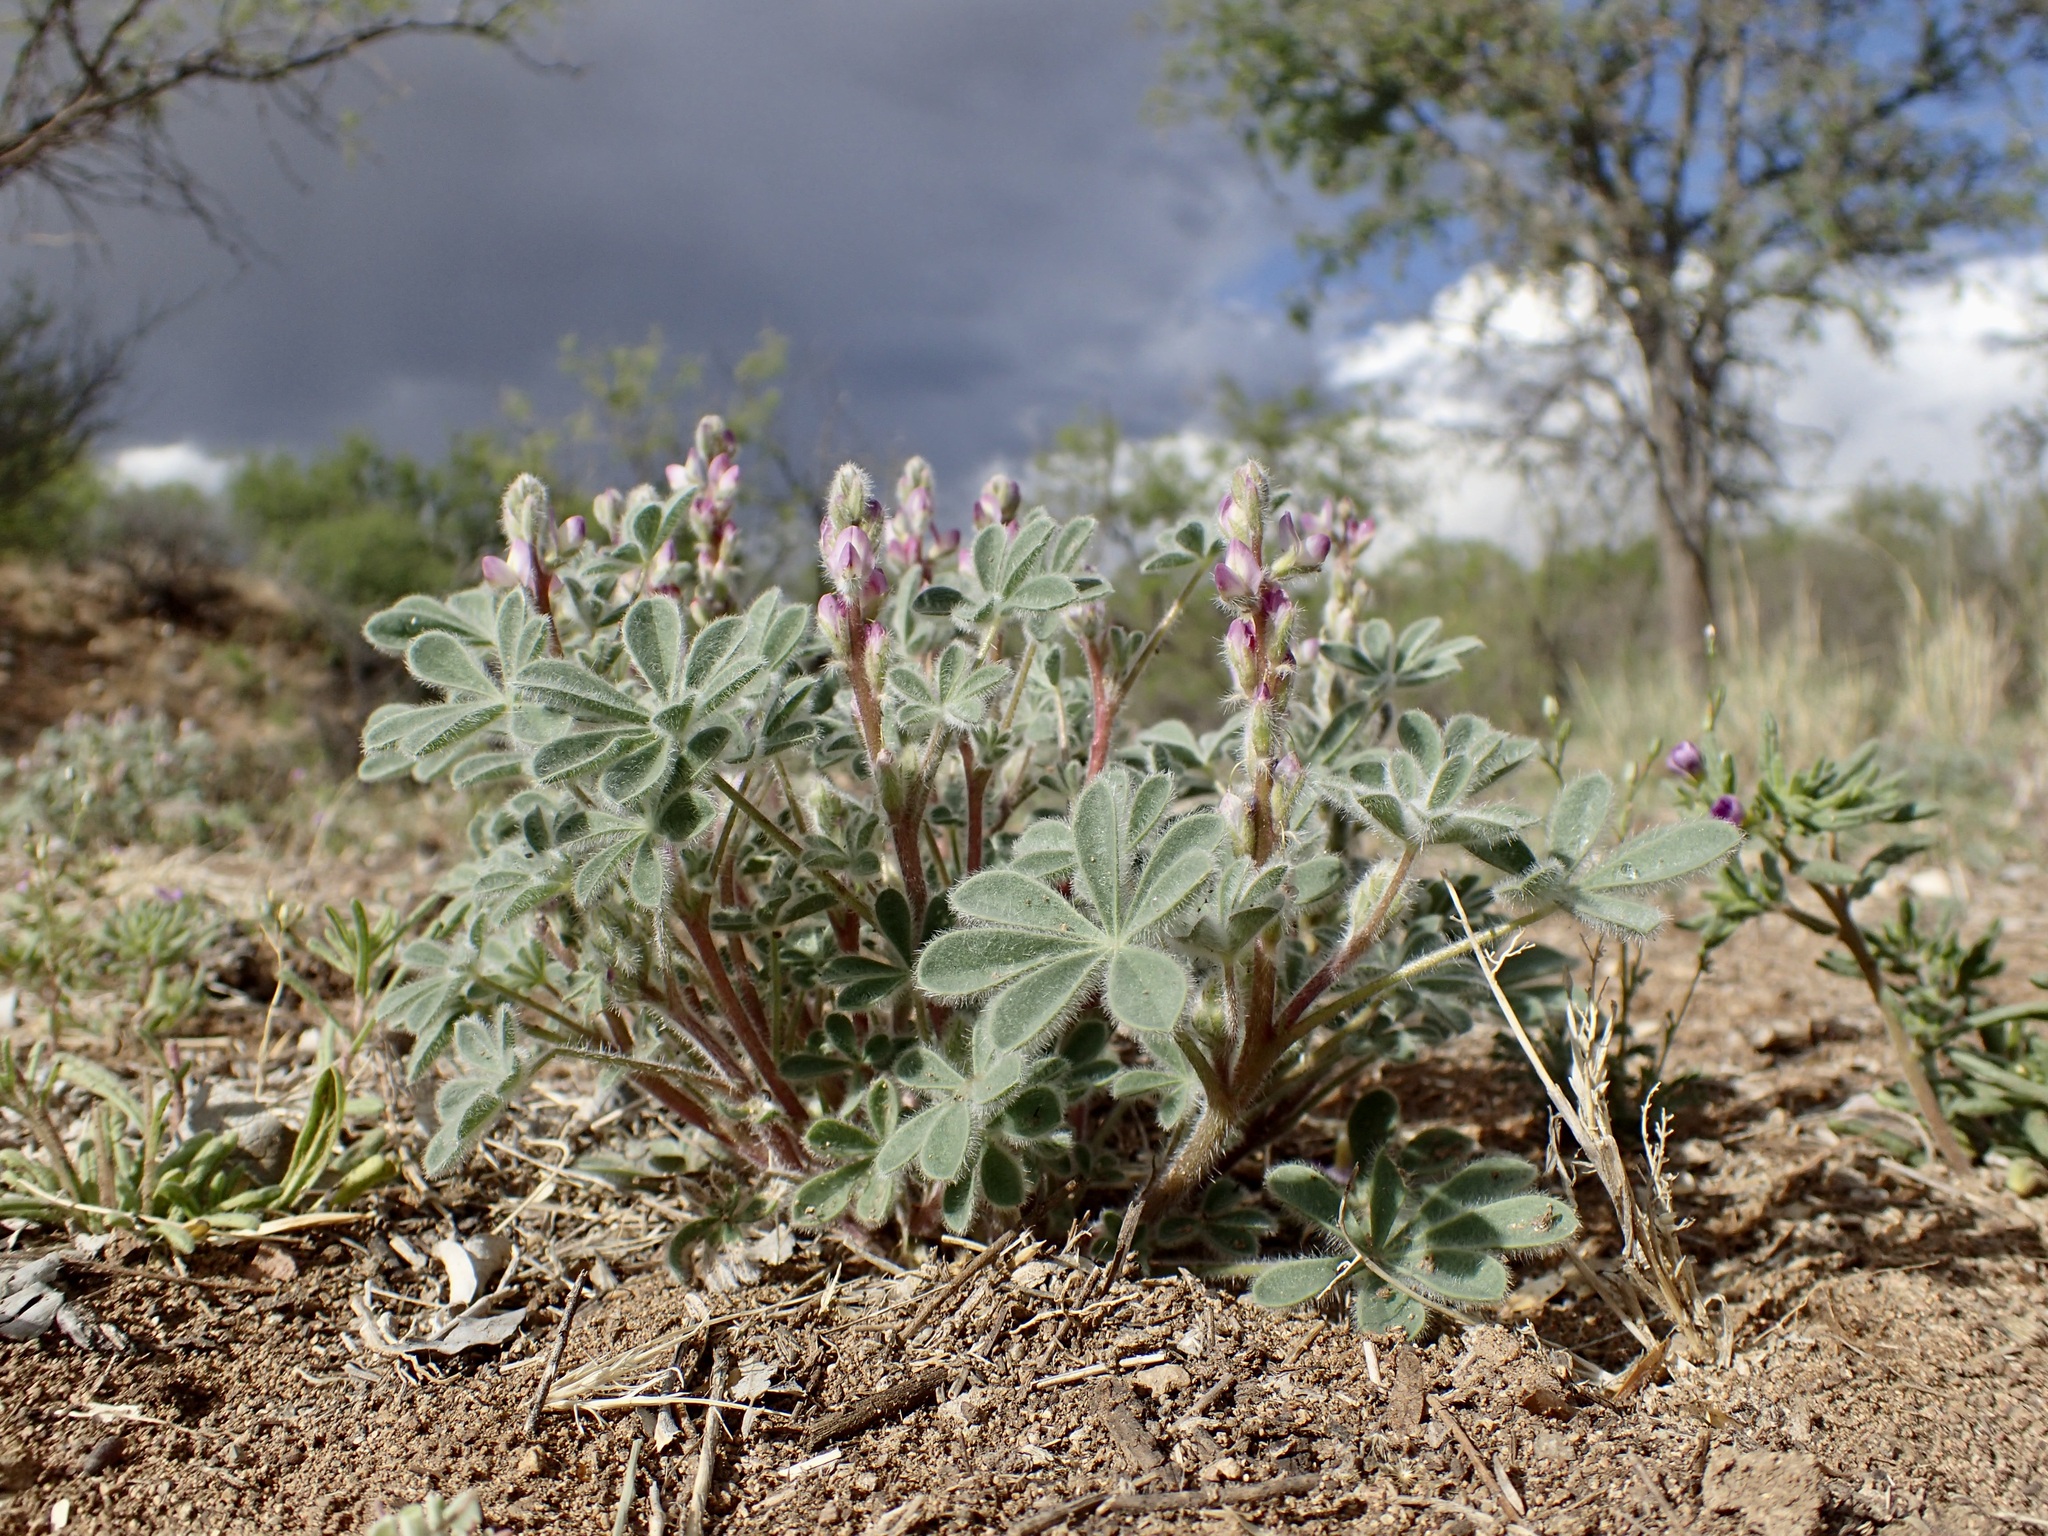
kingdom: Plantae
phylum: Tracheophyta
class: Magnoliopsida
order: Fabales
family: Fabaceae
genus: Lupinus
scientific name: Lupinus concinnus
